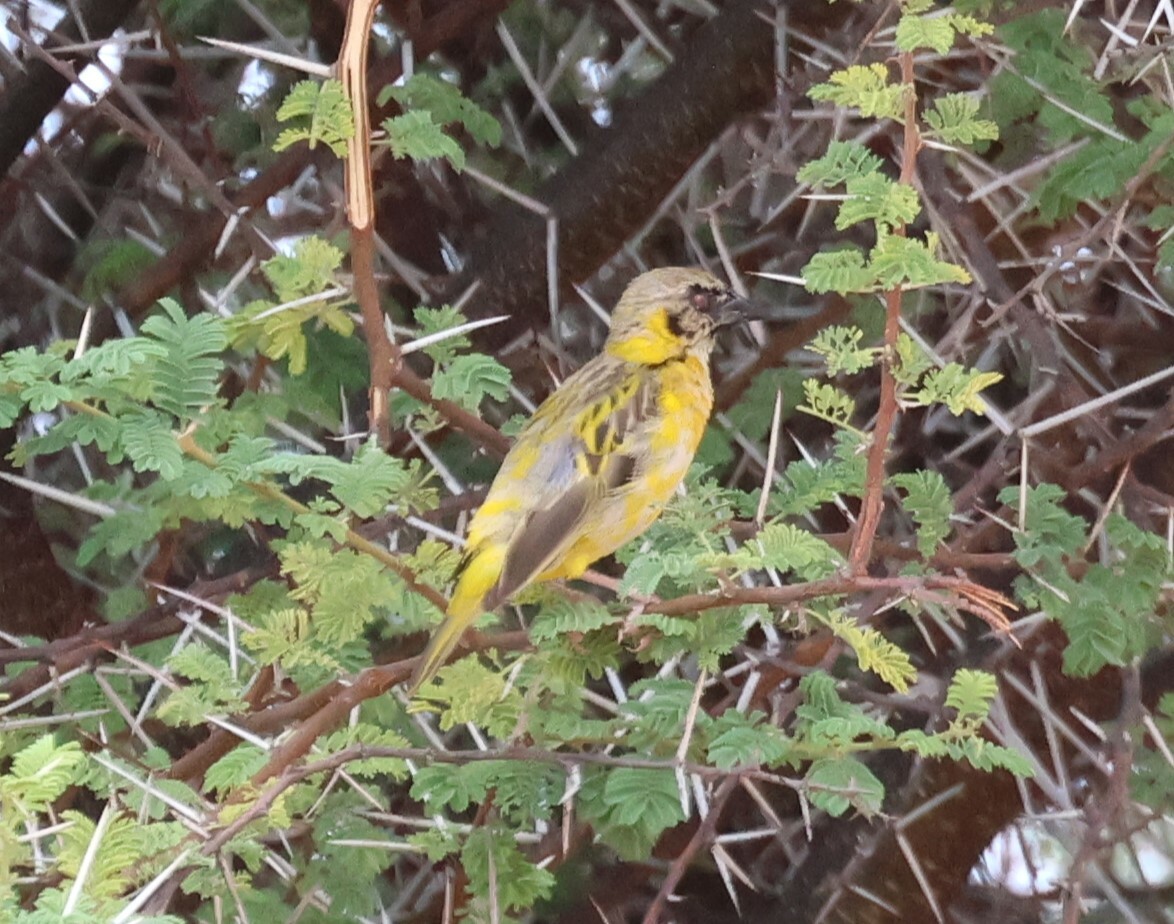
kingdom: Animalia
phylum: Chordata
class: Aves
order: Passeriformes
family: Ploceidae
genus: Ploceus
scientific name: Ploceus velatus
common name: Southern masked weaver
